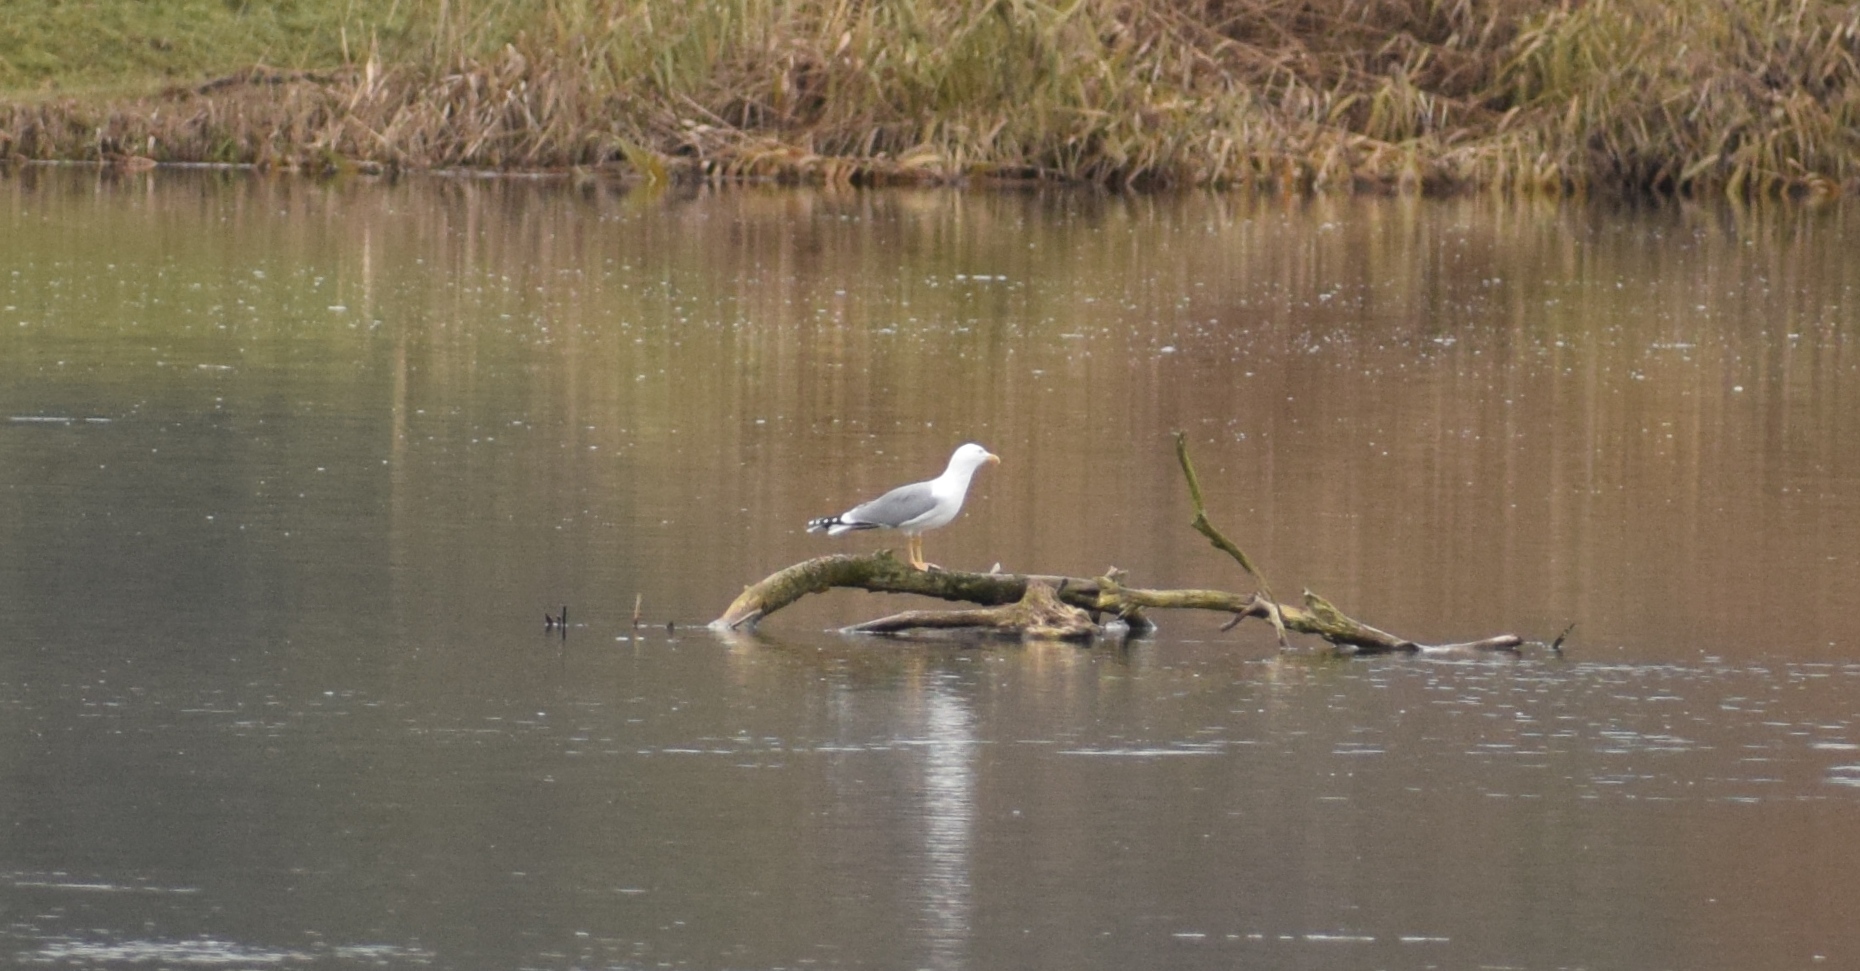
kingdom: Animalia
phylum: Chordata
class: Aves
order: Charadriiformes
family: Laridae
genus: Larus
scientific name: Larus michahellis
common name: Yellow-legged gull
